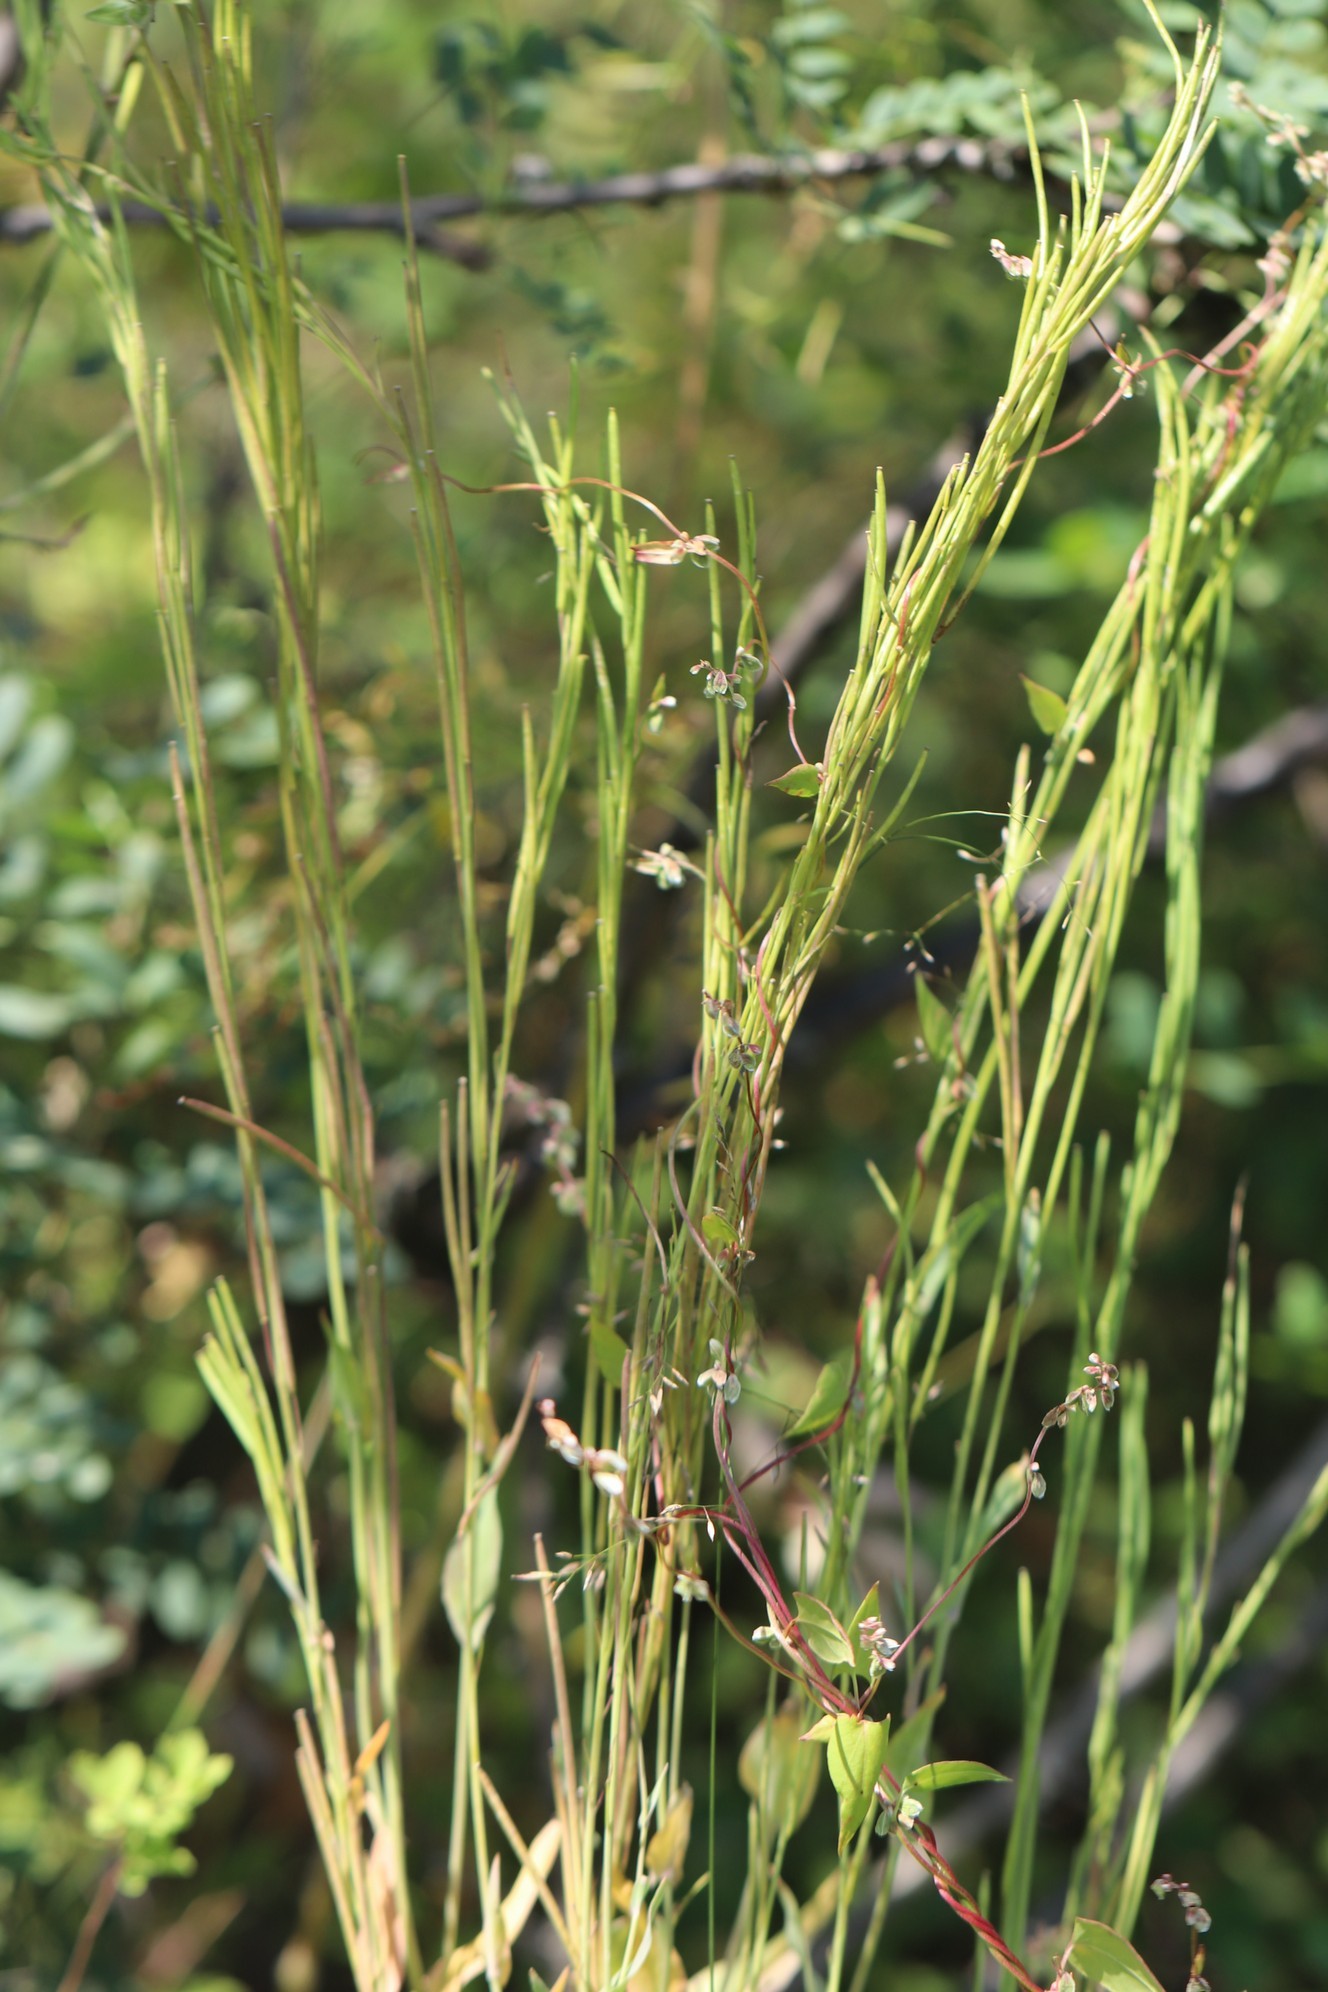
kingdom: Plantae
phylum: Tracheophyta
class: Magnoliopsida
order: Brassicales
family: Brassicaceae
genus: Turritis
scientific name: Turritis glabra
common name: Tower rockcress
